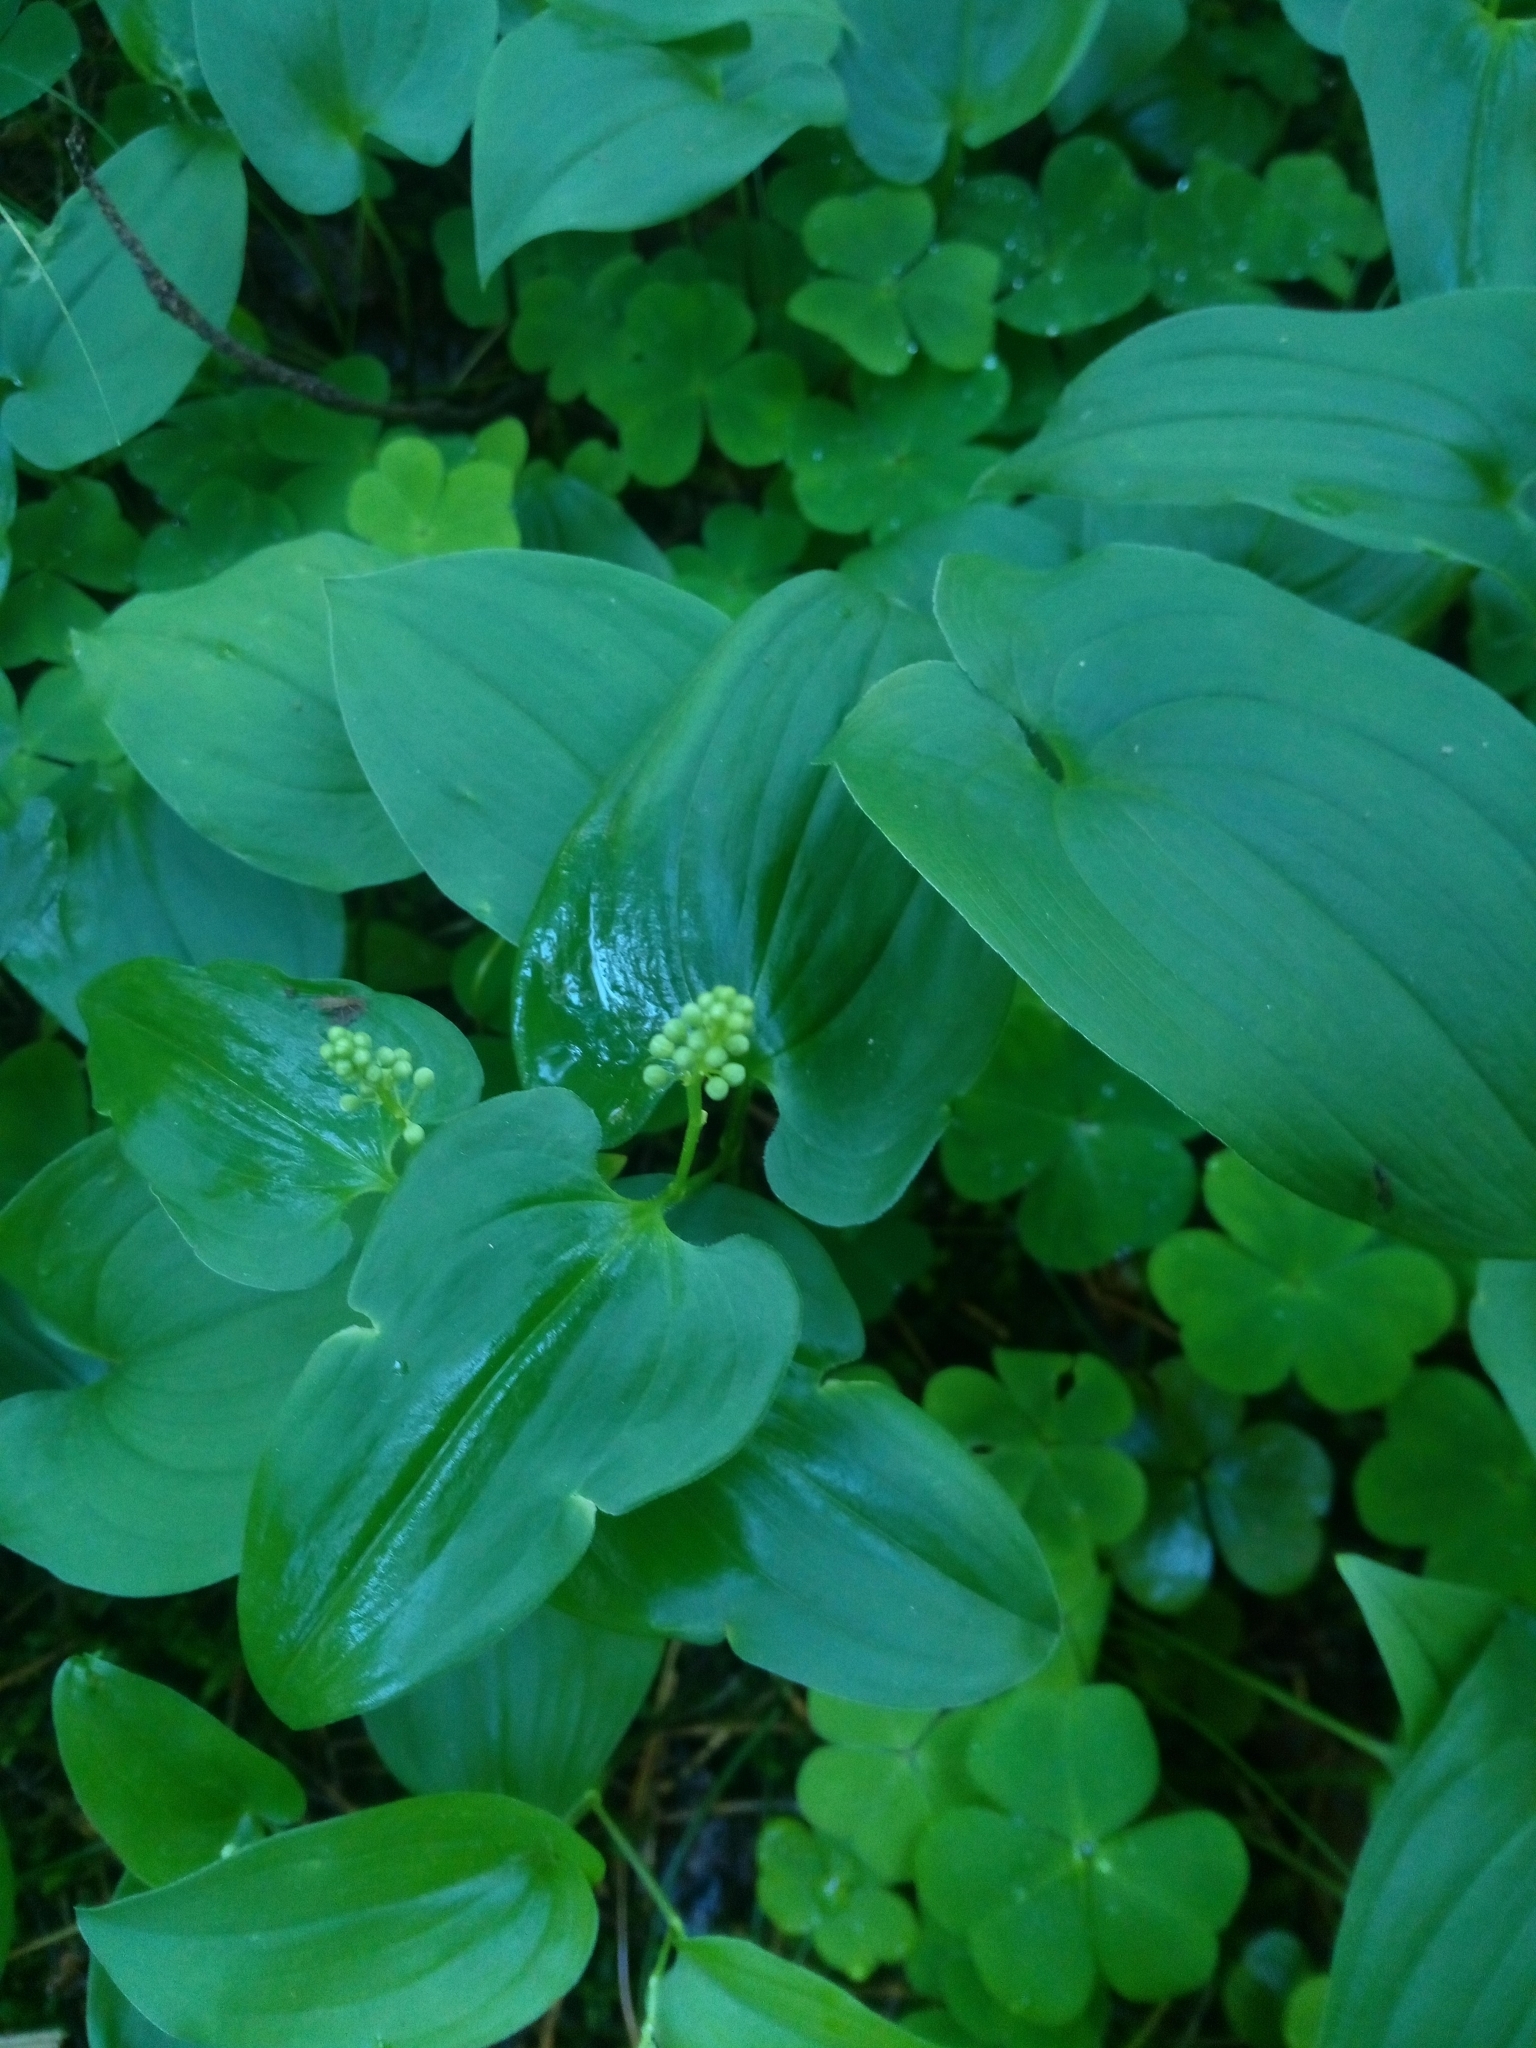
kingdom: Plantae
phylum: Tracheophyta
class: Liliopsida
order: Asparagales
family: Asparagaceae
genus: Maianthemum
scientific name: Maianthemum bifolium
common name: May lily
